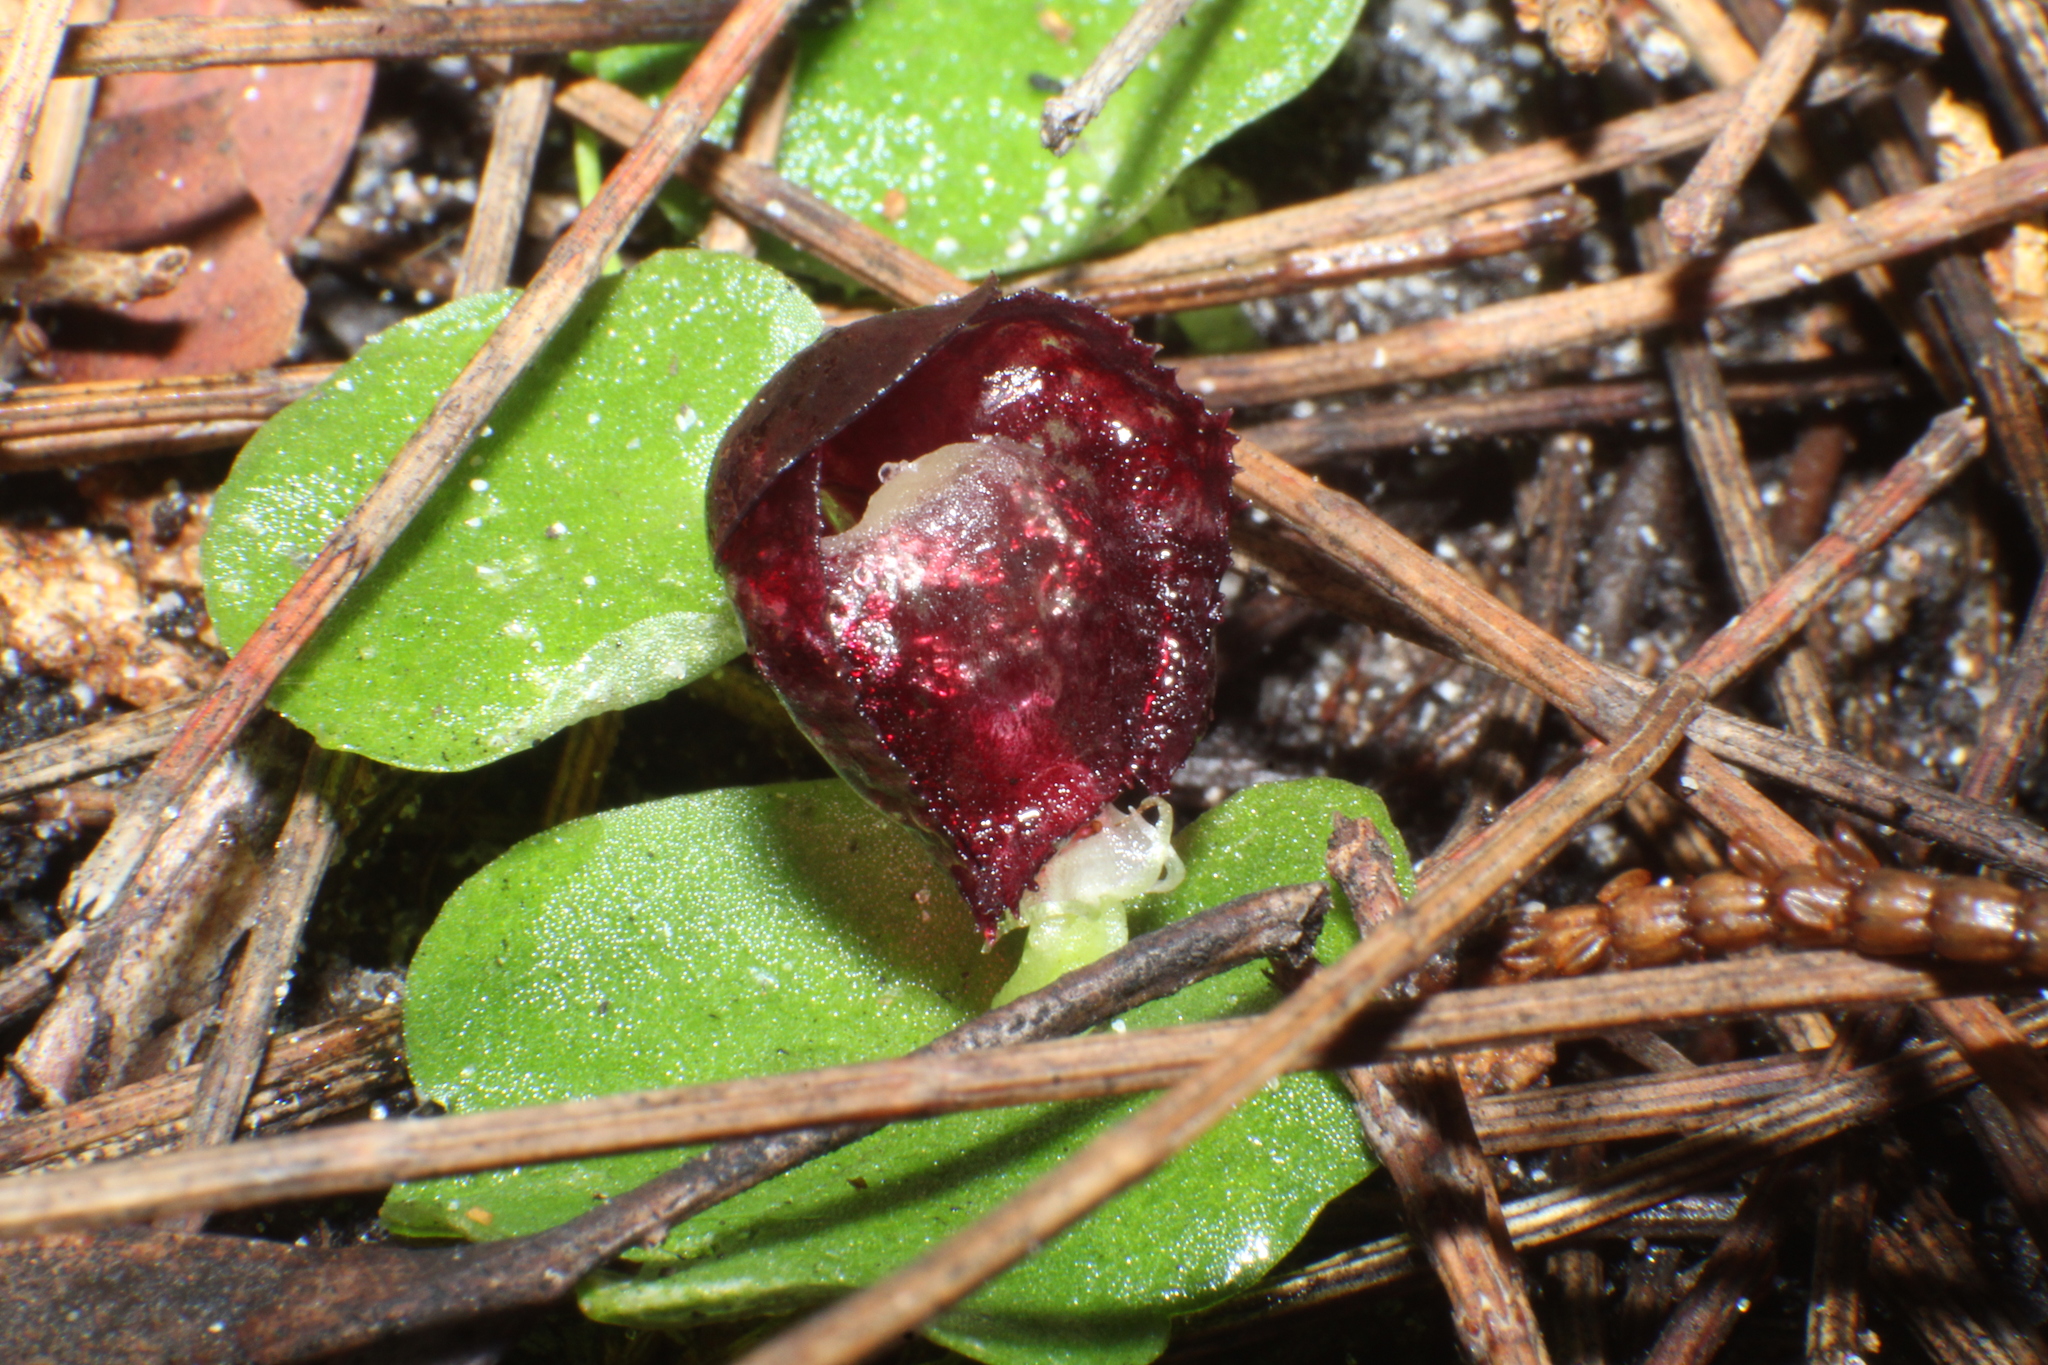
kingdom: Plantae
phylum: Tracheophyta
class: Liliopsida
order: Asparagales
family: Orchidaceae
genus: Corybas
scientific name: Corybas recurvus
